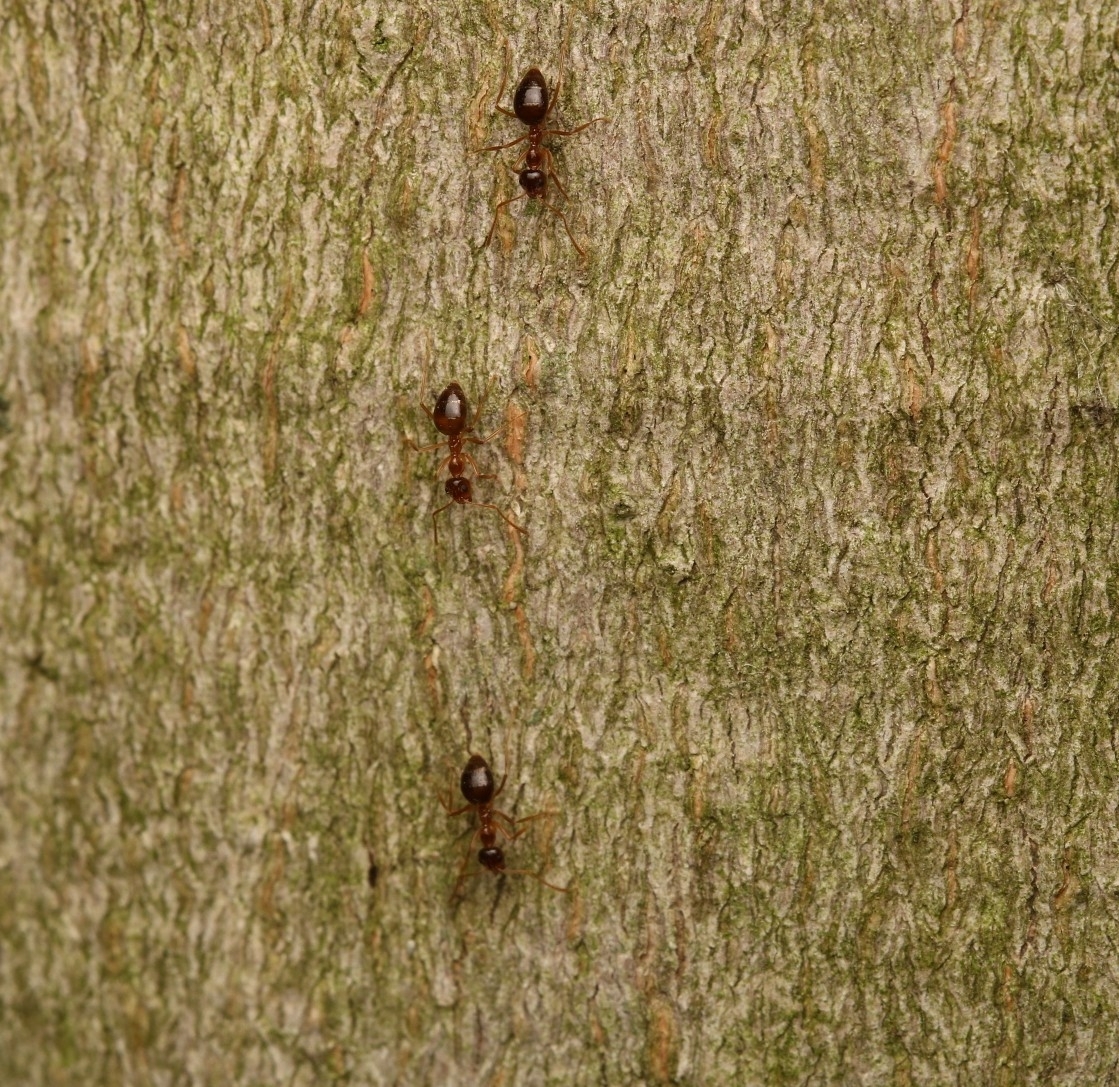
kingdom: Animalia
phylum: Arthropoda
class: Insecta
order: Hymenoptera
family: Formicidae
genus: Prenolepis
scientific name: Prenolepis imparis
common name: Small honey ant
